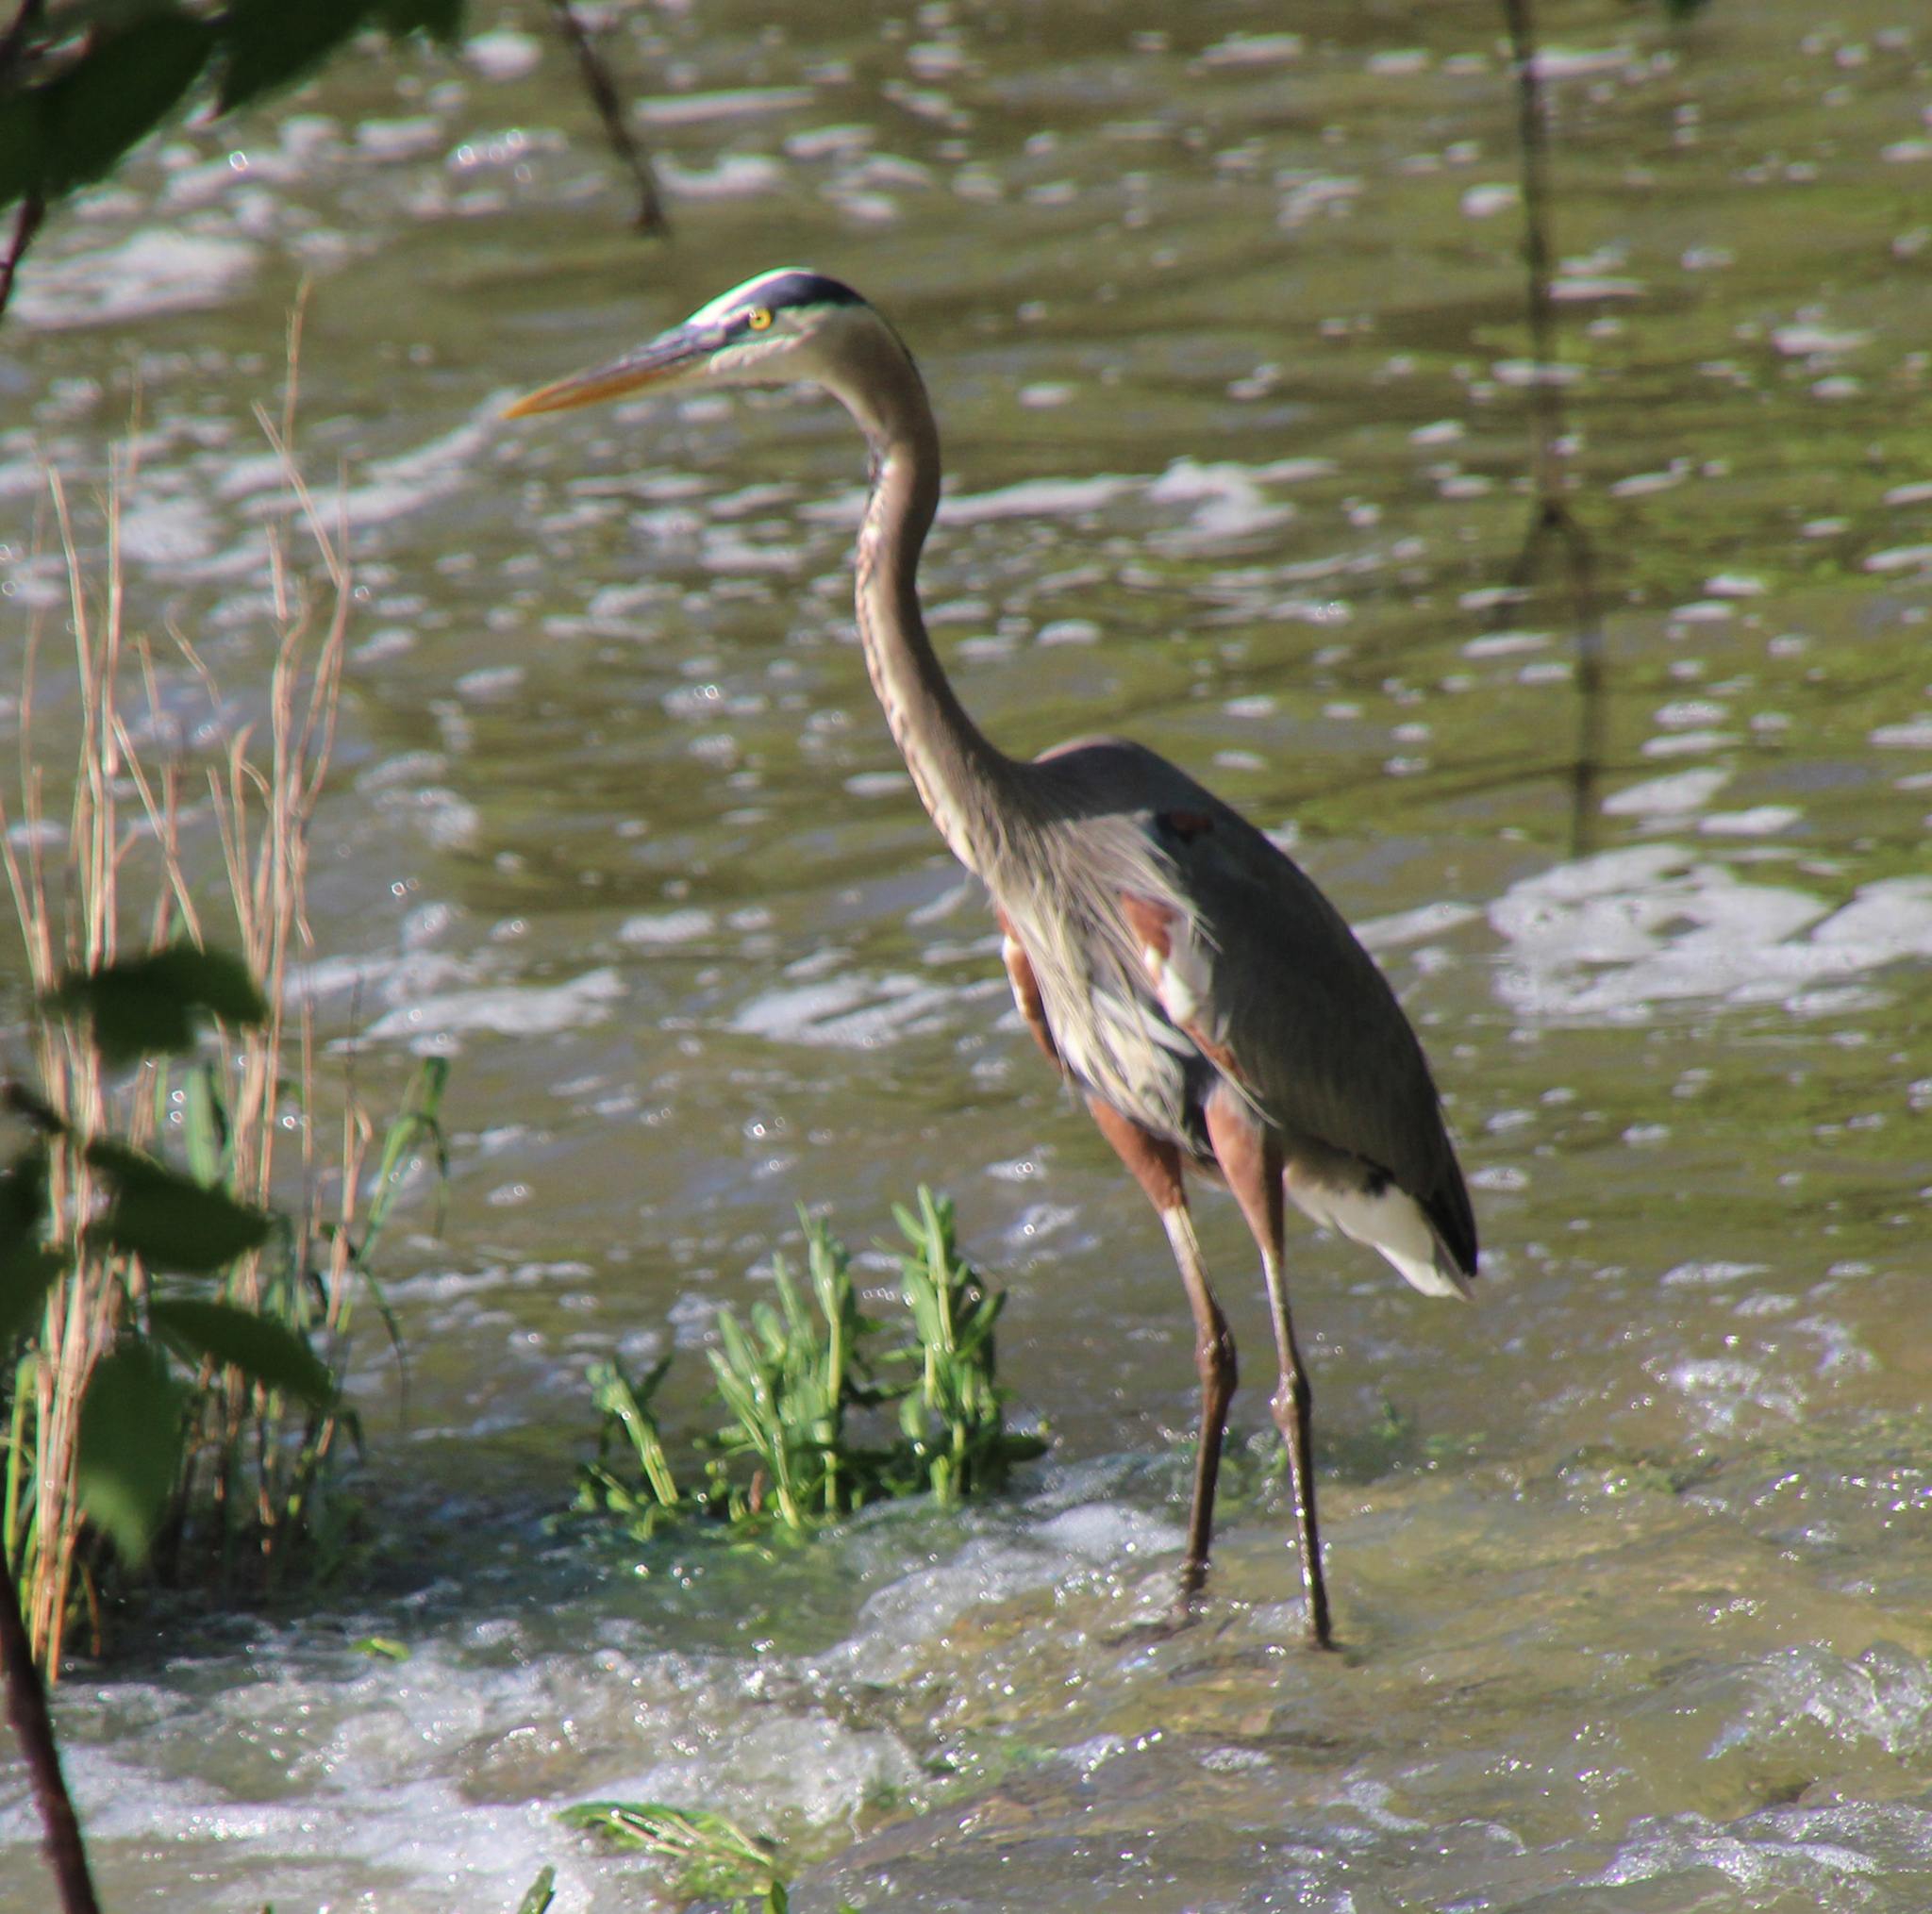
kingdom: Animalia
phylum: Chordata
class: Aves
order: Pelecaniformes
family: Ardeidae
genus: Ardea
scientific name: Ardea herodias
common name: Great blue heron
